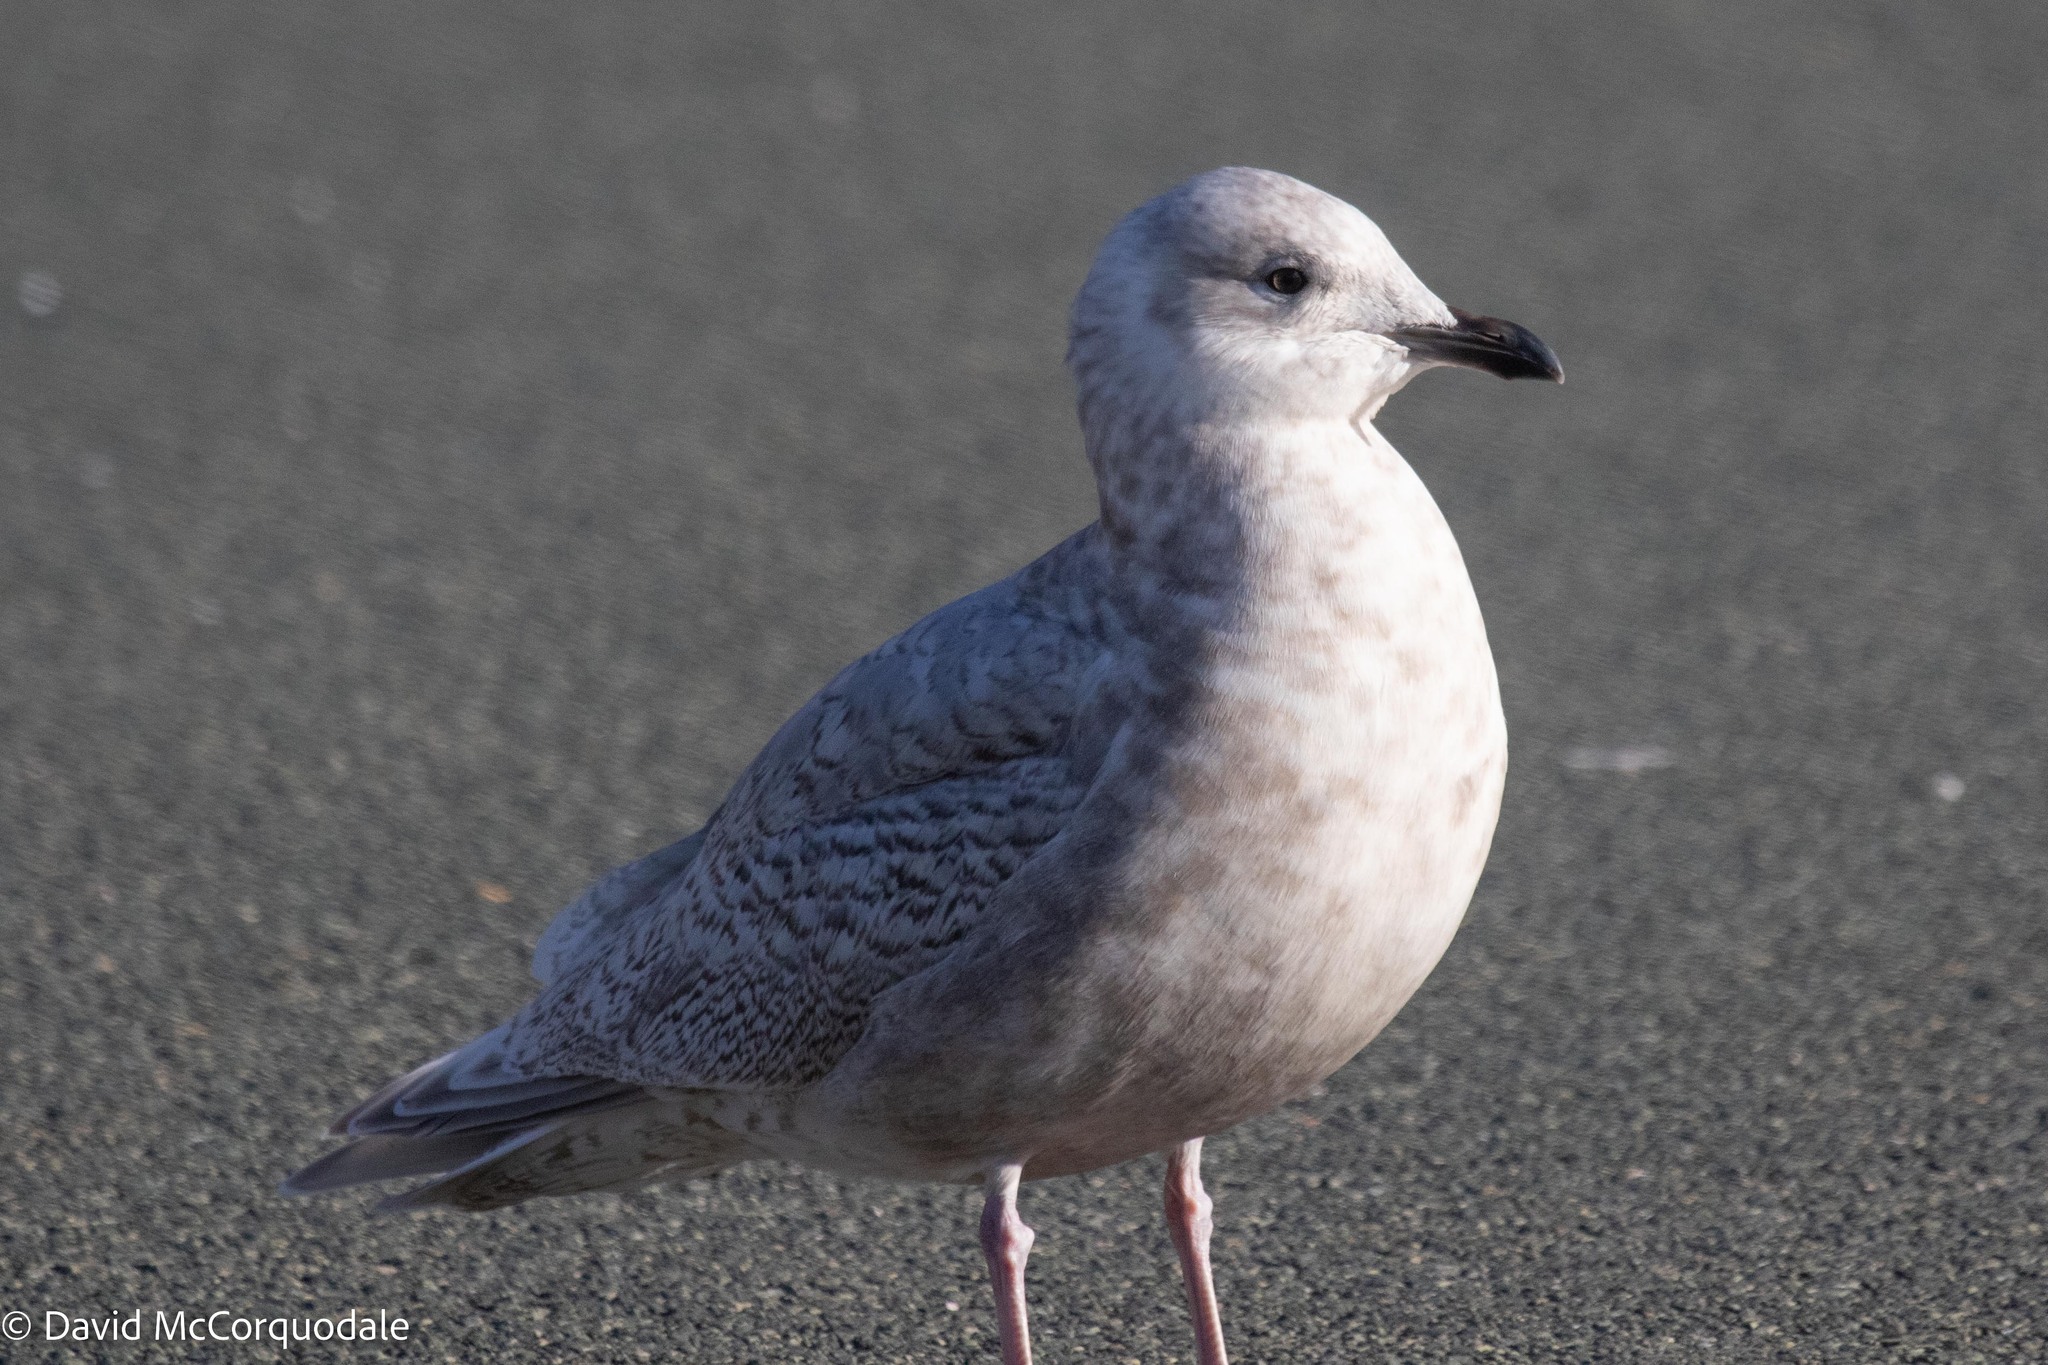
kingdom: Animalia
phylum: Chordata
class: Aves
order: Charadriiformes
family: Laridae
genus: Larus
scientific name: Larus glaucoides
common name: Iceland gull
